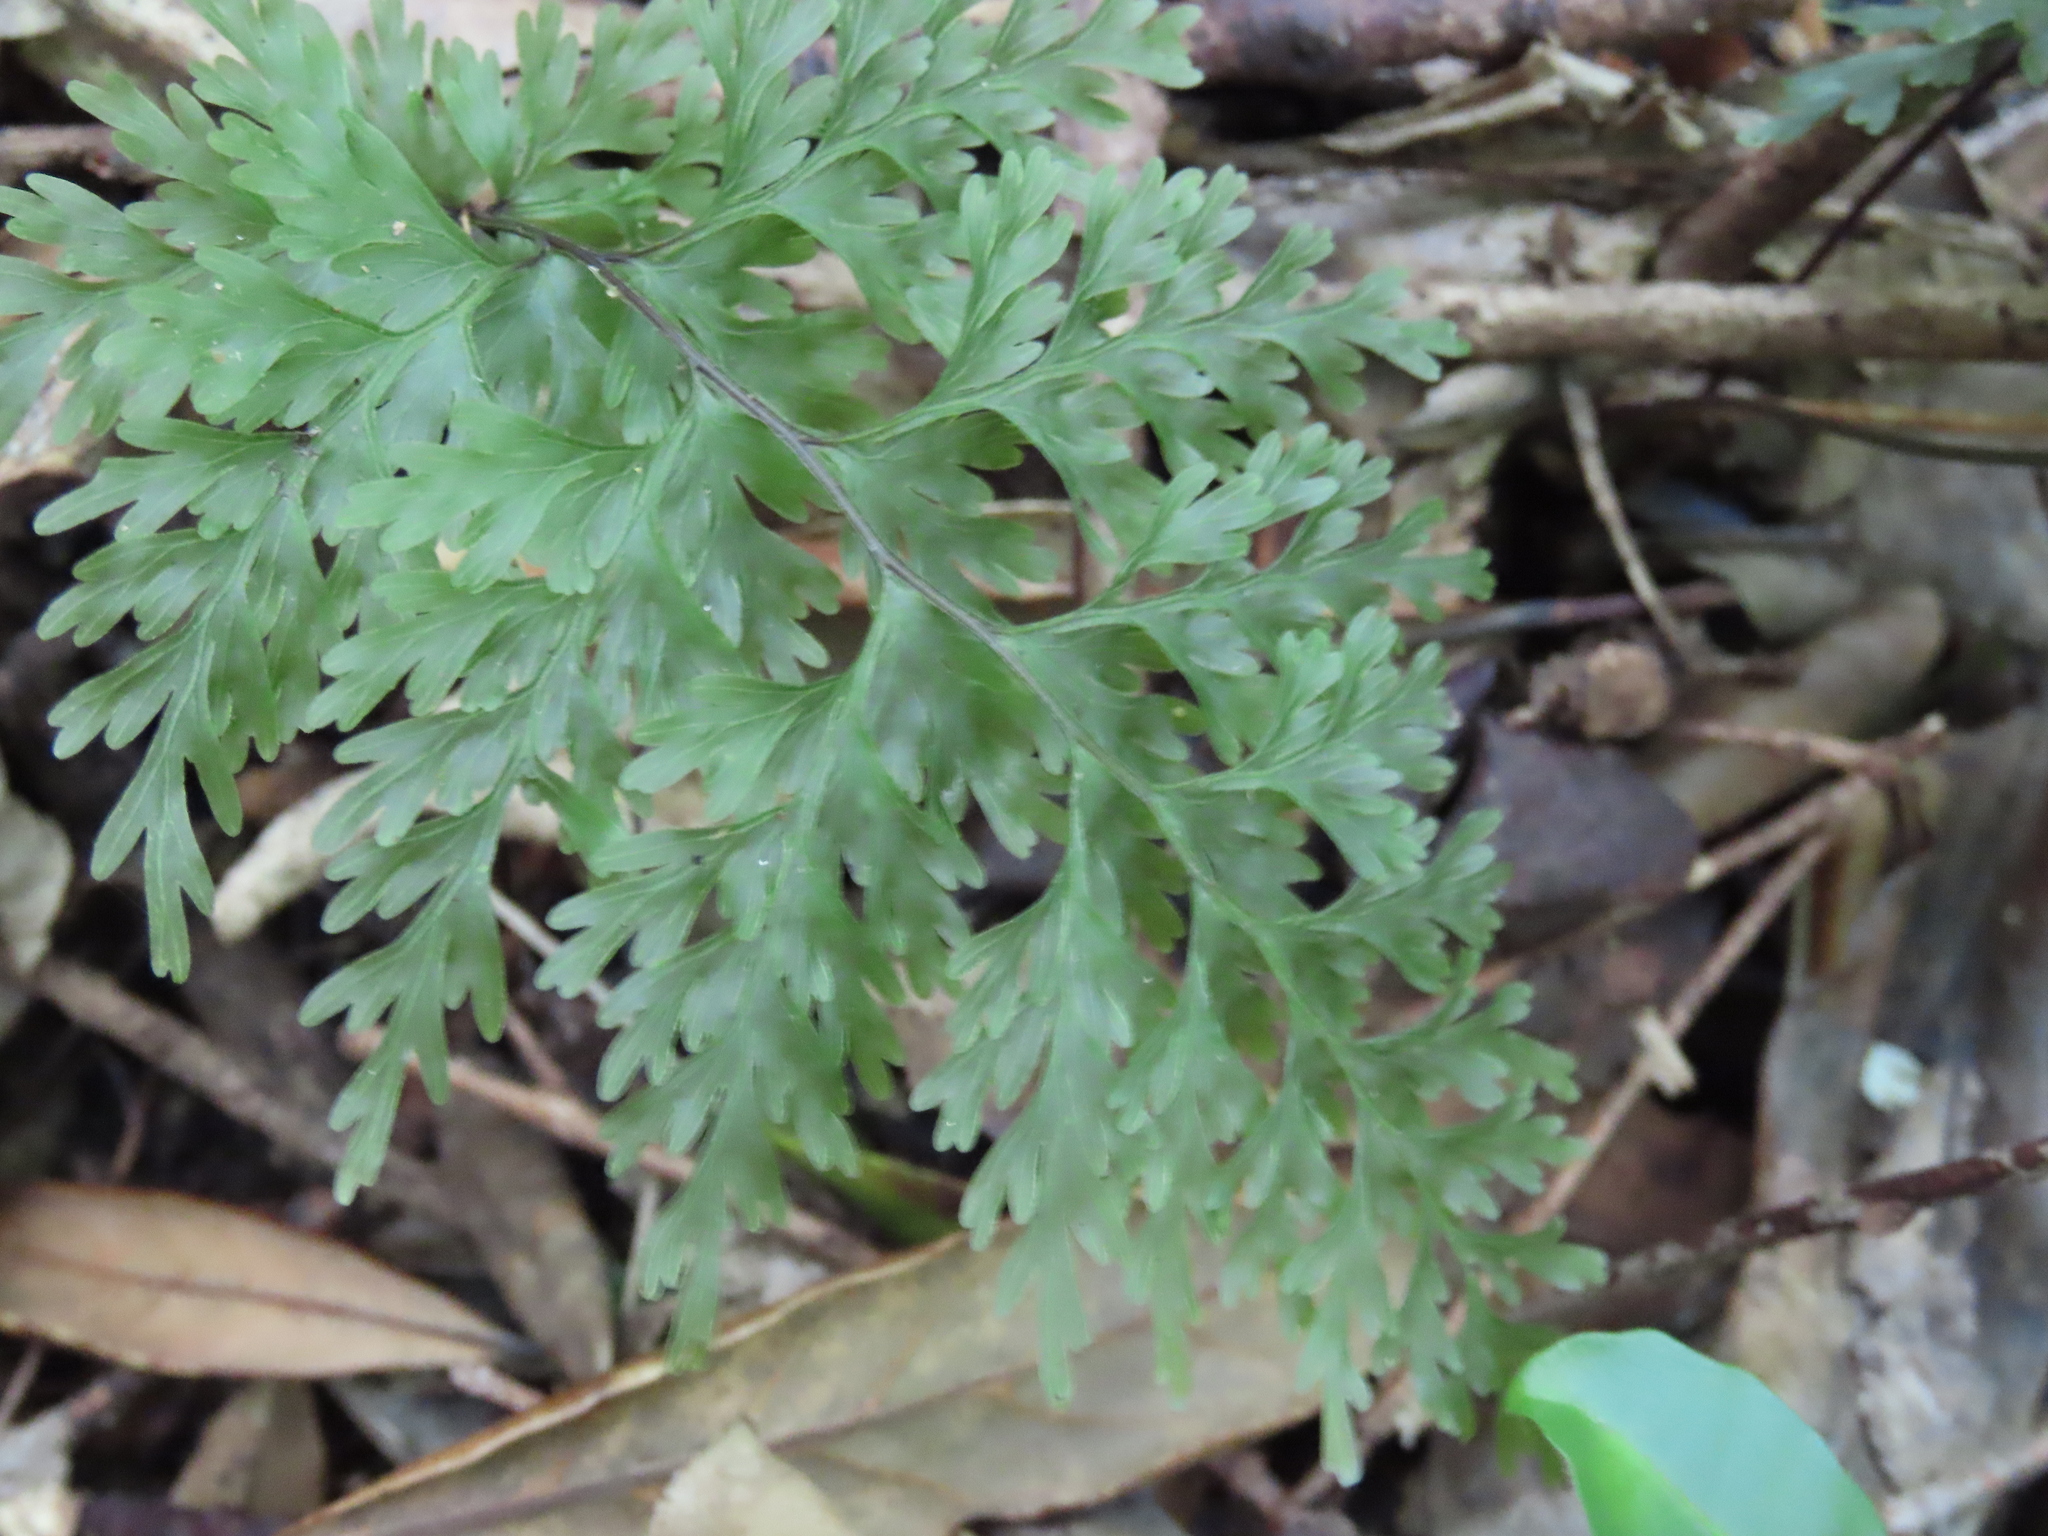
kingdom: Plantae
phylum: Tracheophyta
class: Polypodiopsida
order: Hymenophyllales
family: Hymenophyllaceae
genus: Hymenophyllum
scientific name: Hymenophyllum demissum
